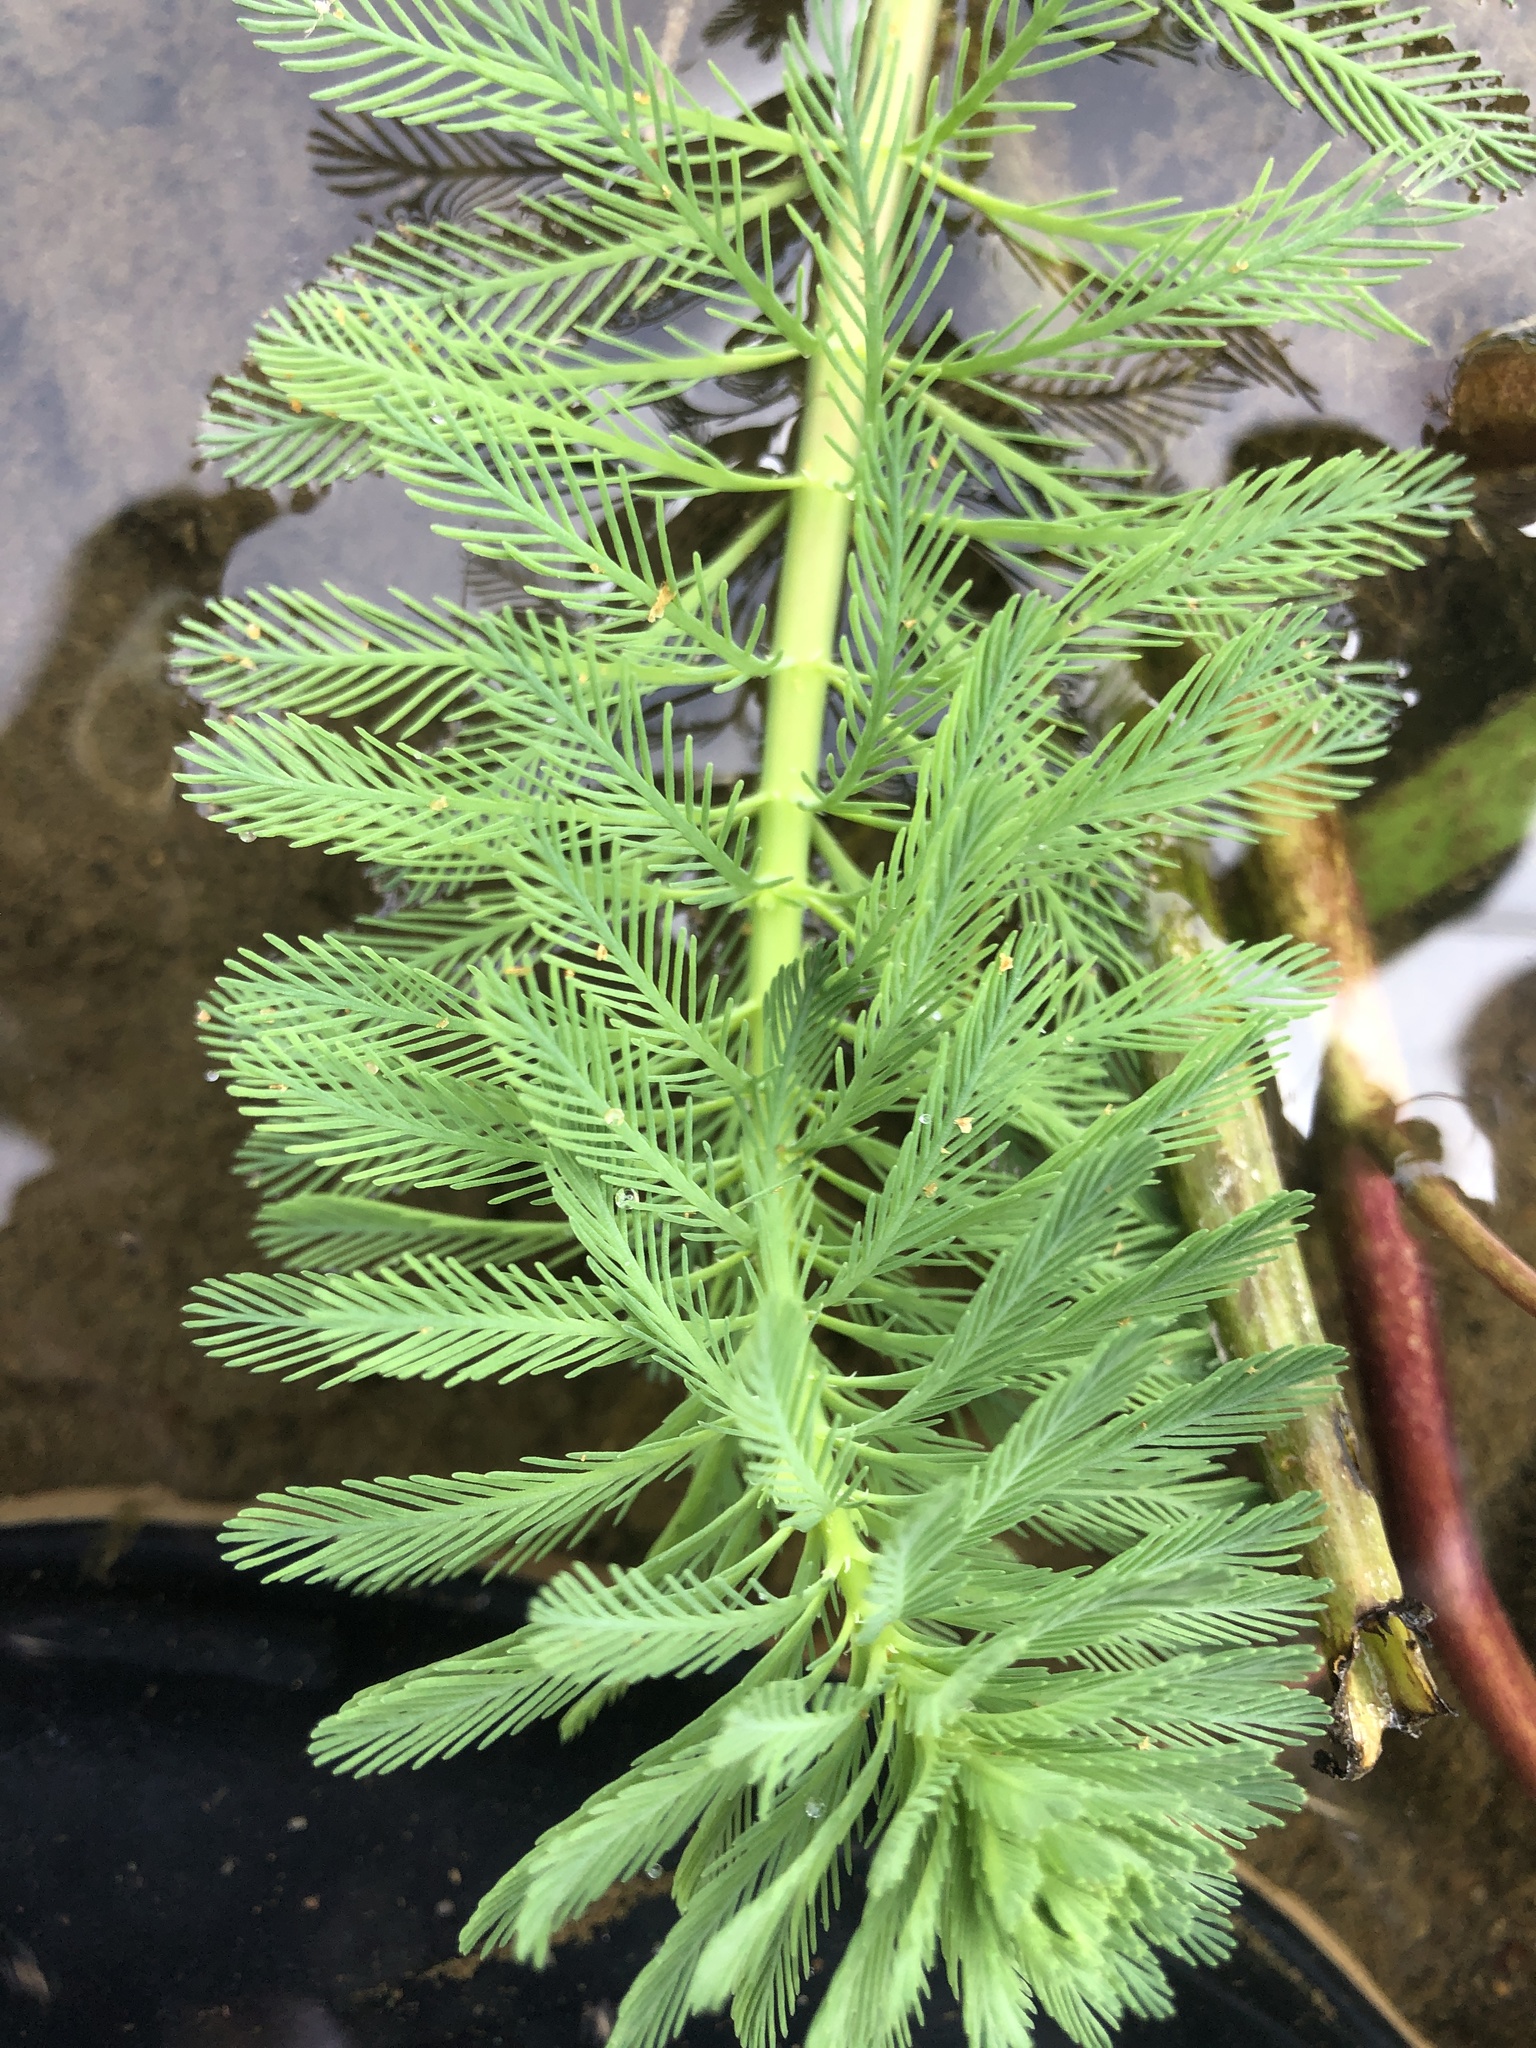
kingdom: Plantae
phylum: Tracheophyta
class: Magnoliopsida
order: Saxifragales
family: Haloragaceae
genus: Myriophyllum
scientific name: Myriophyllum aquaticum
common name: Parrot's feather
